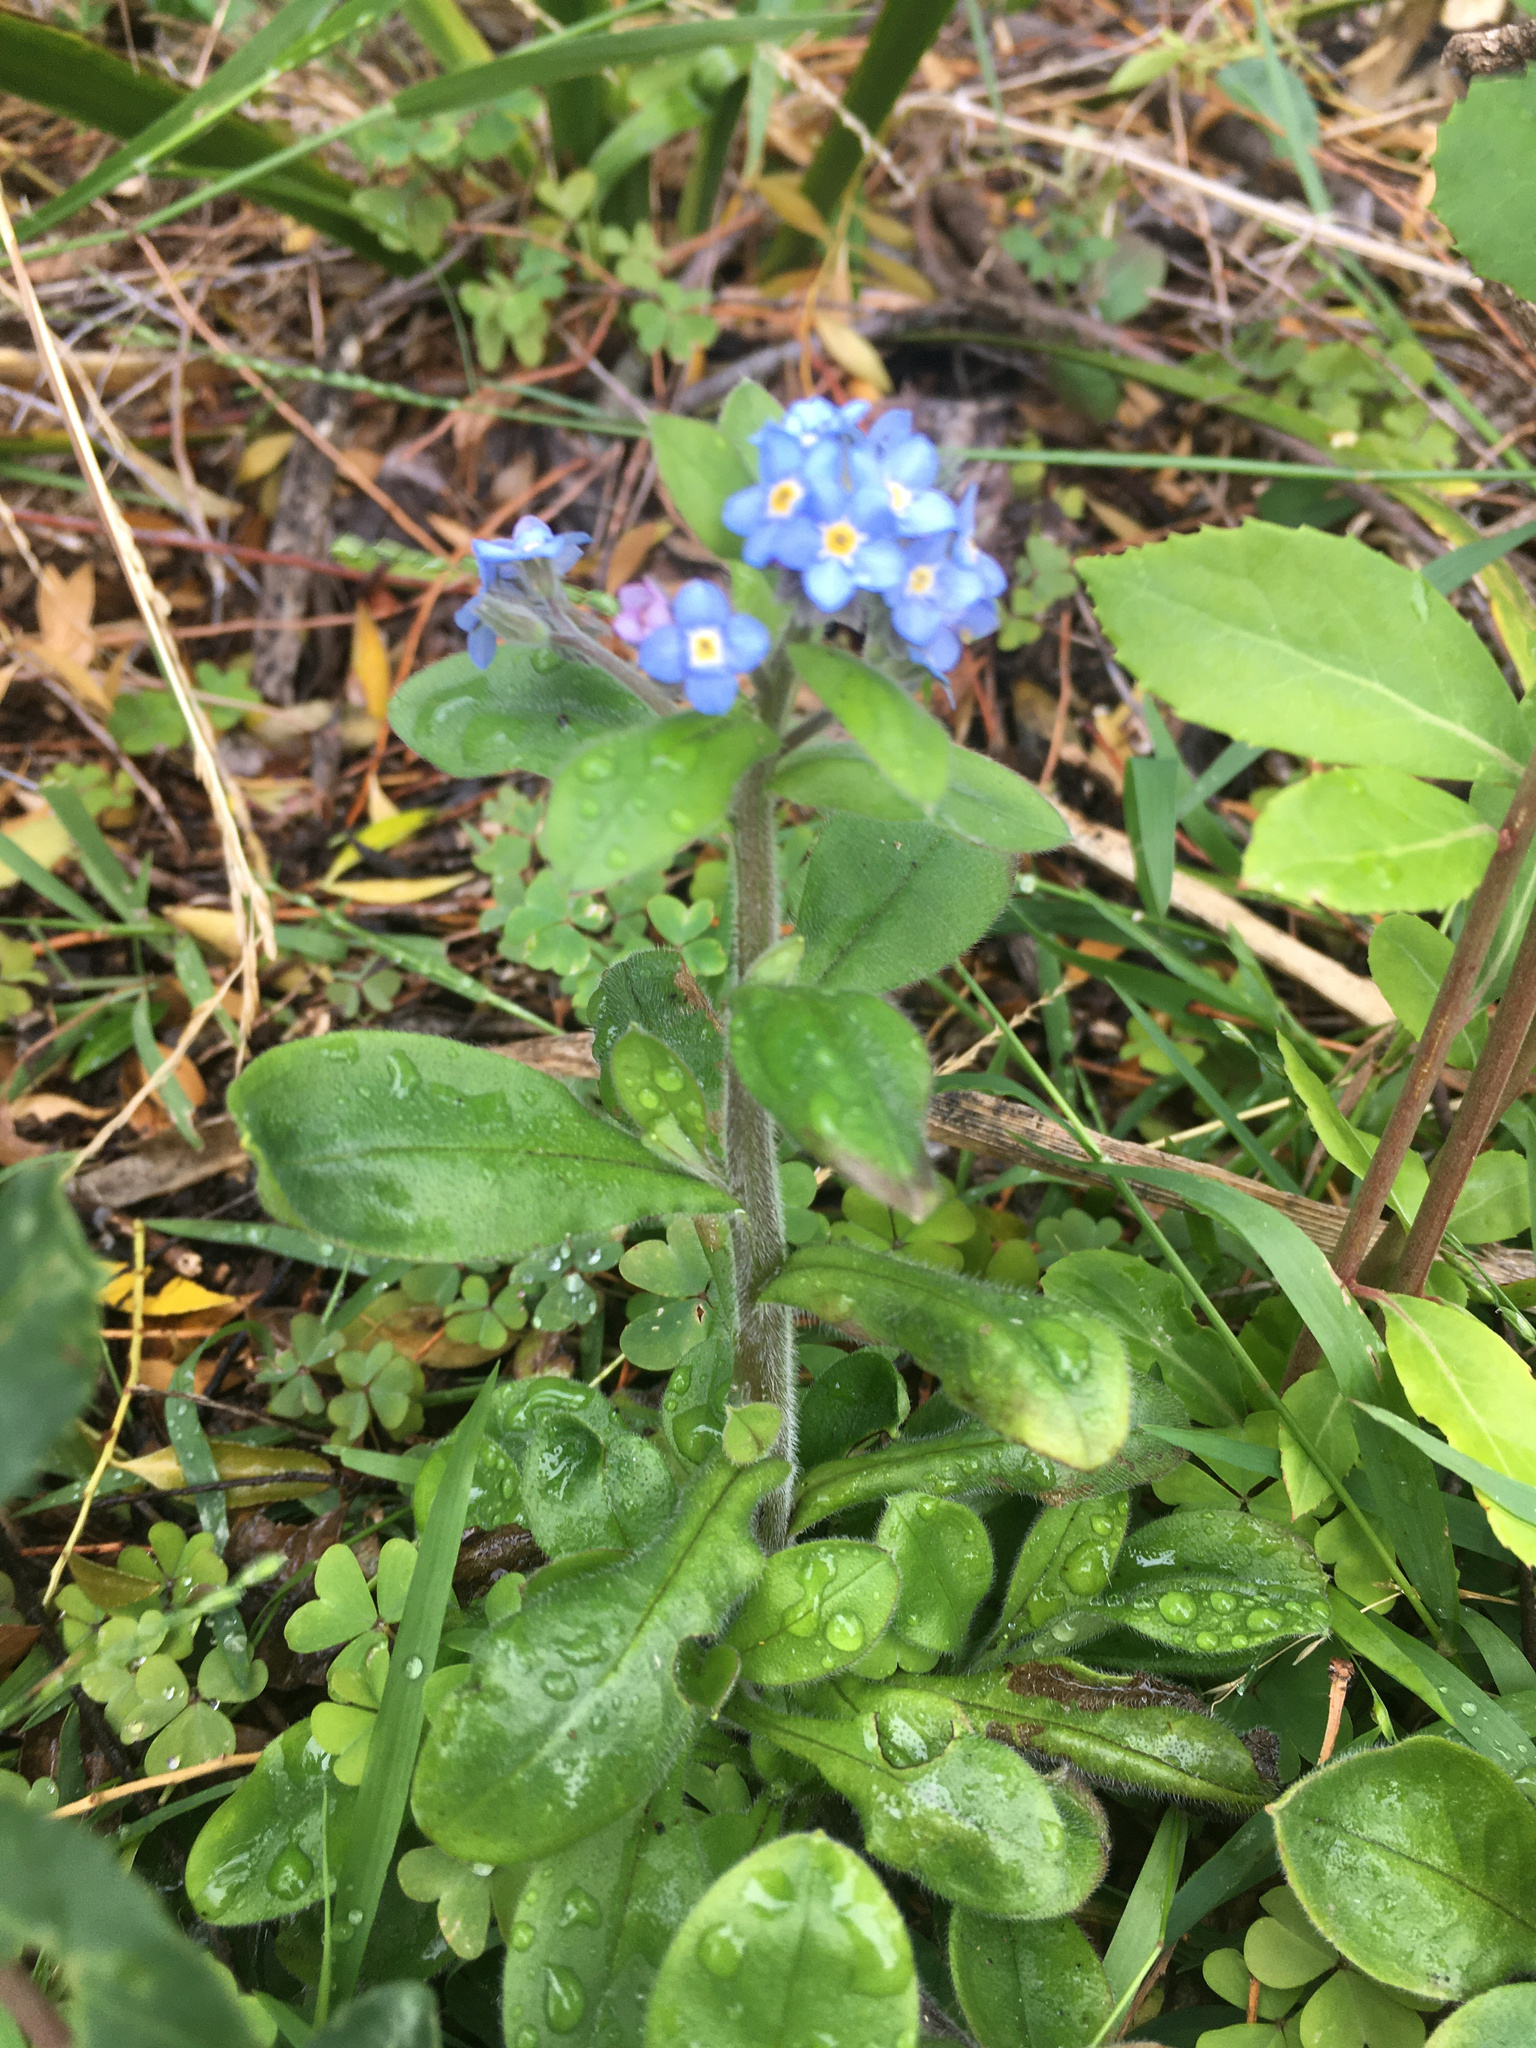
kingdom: Plantae
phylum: Tracheophyta
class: Magnoliopsida
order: Boraginales
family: Boraginaceae
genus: Myosotis
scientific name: Myosotis sylvatica
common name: Wood forget-me-not
